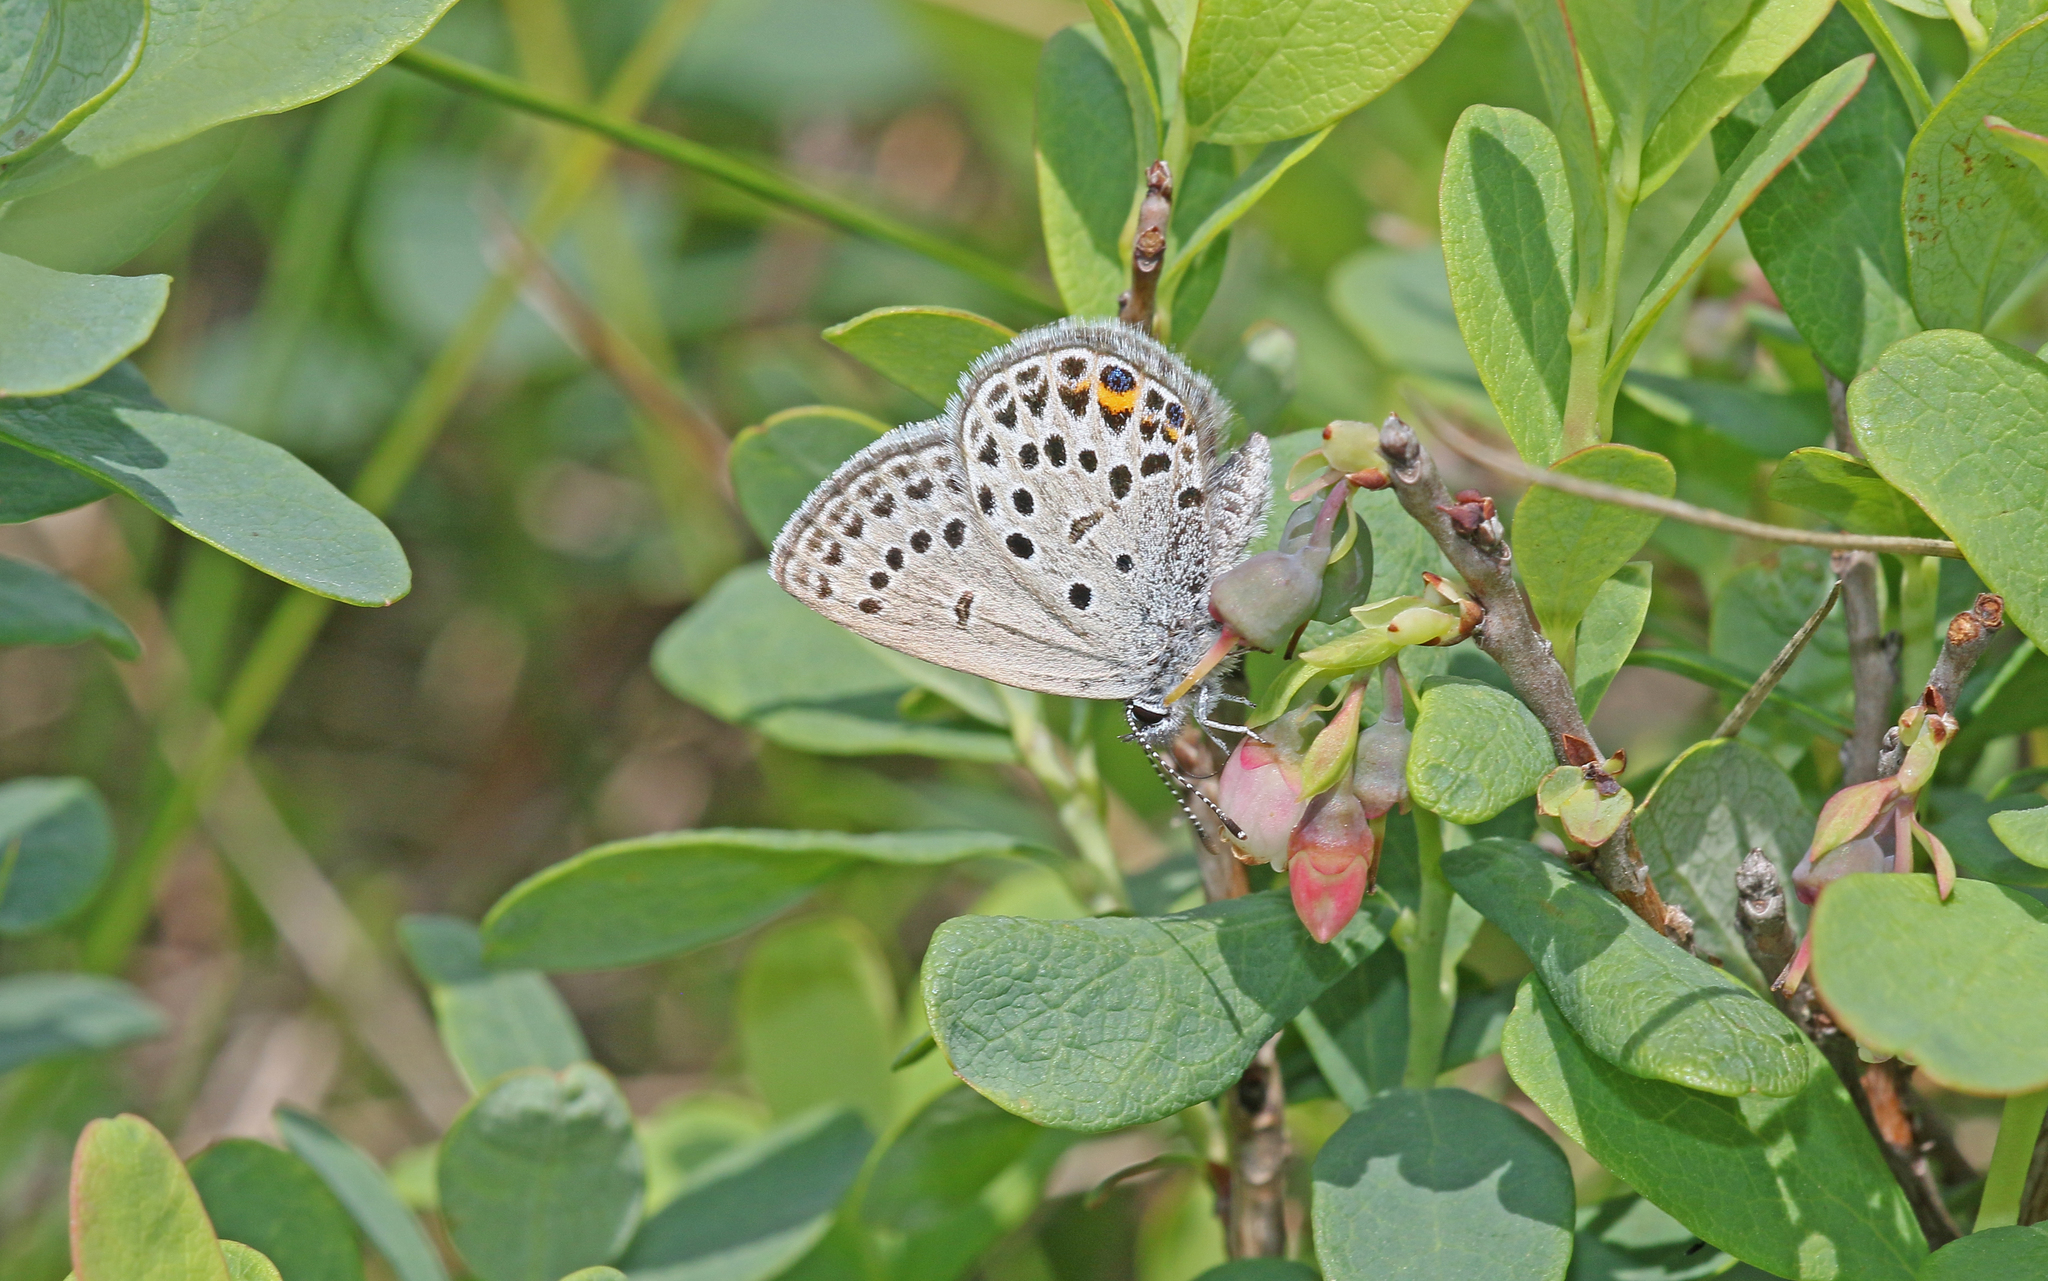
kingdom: Animalia
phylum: Arthropoda
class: Insecta
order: Lepidoptera
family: Lycaenidae
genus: Vacciniina
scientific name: Vacciniina optilete
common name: Cranberry blue
